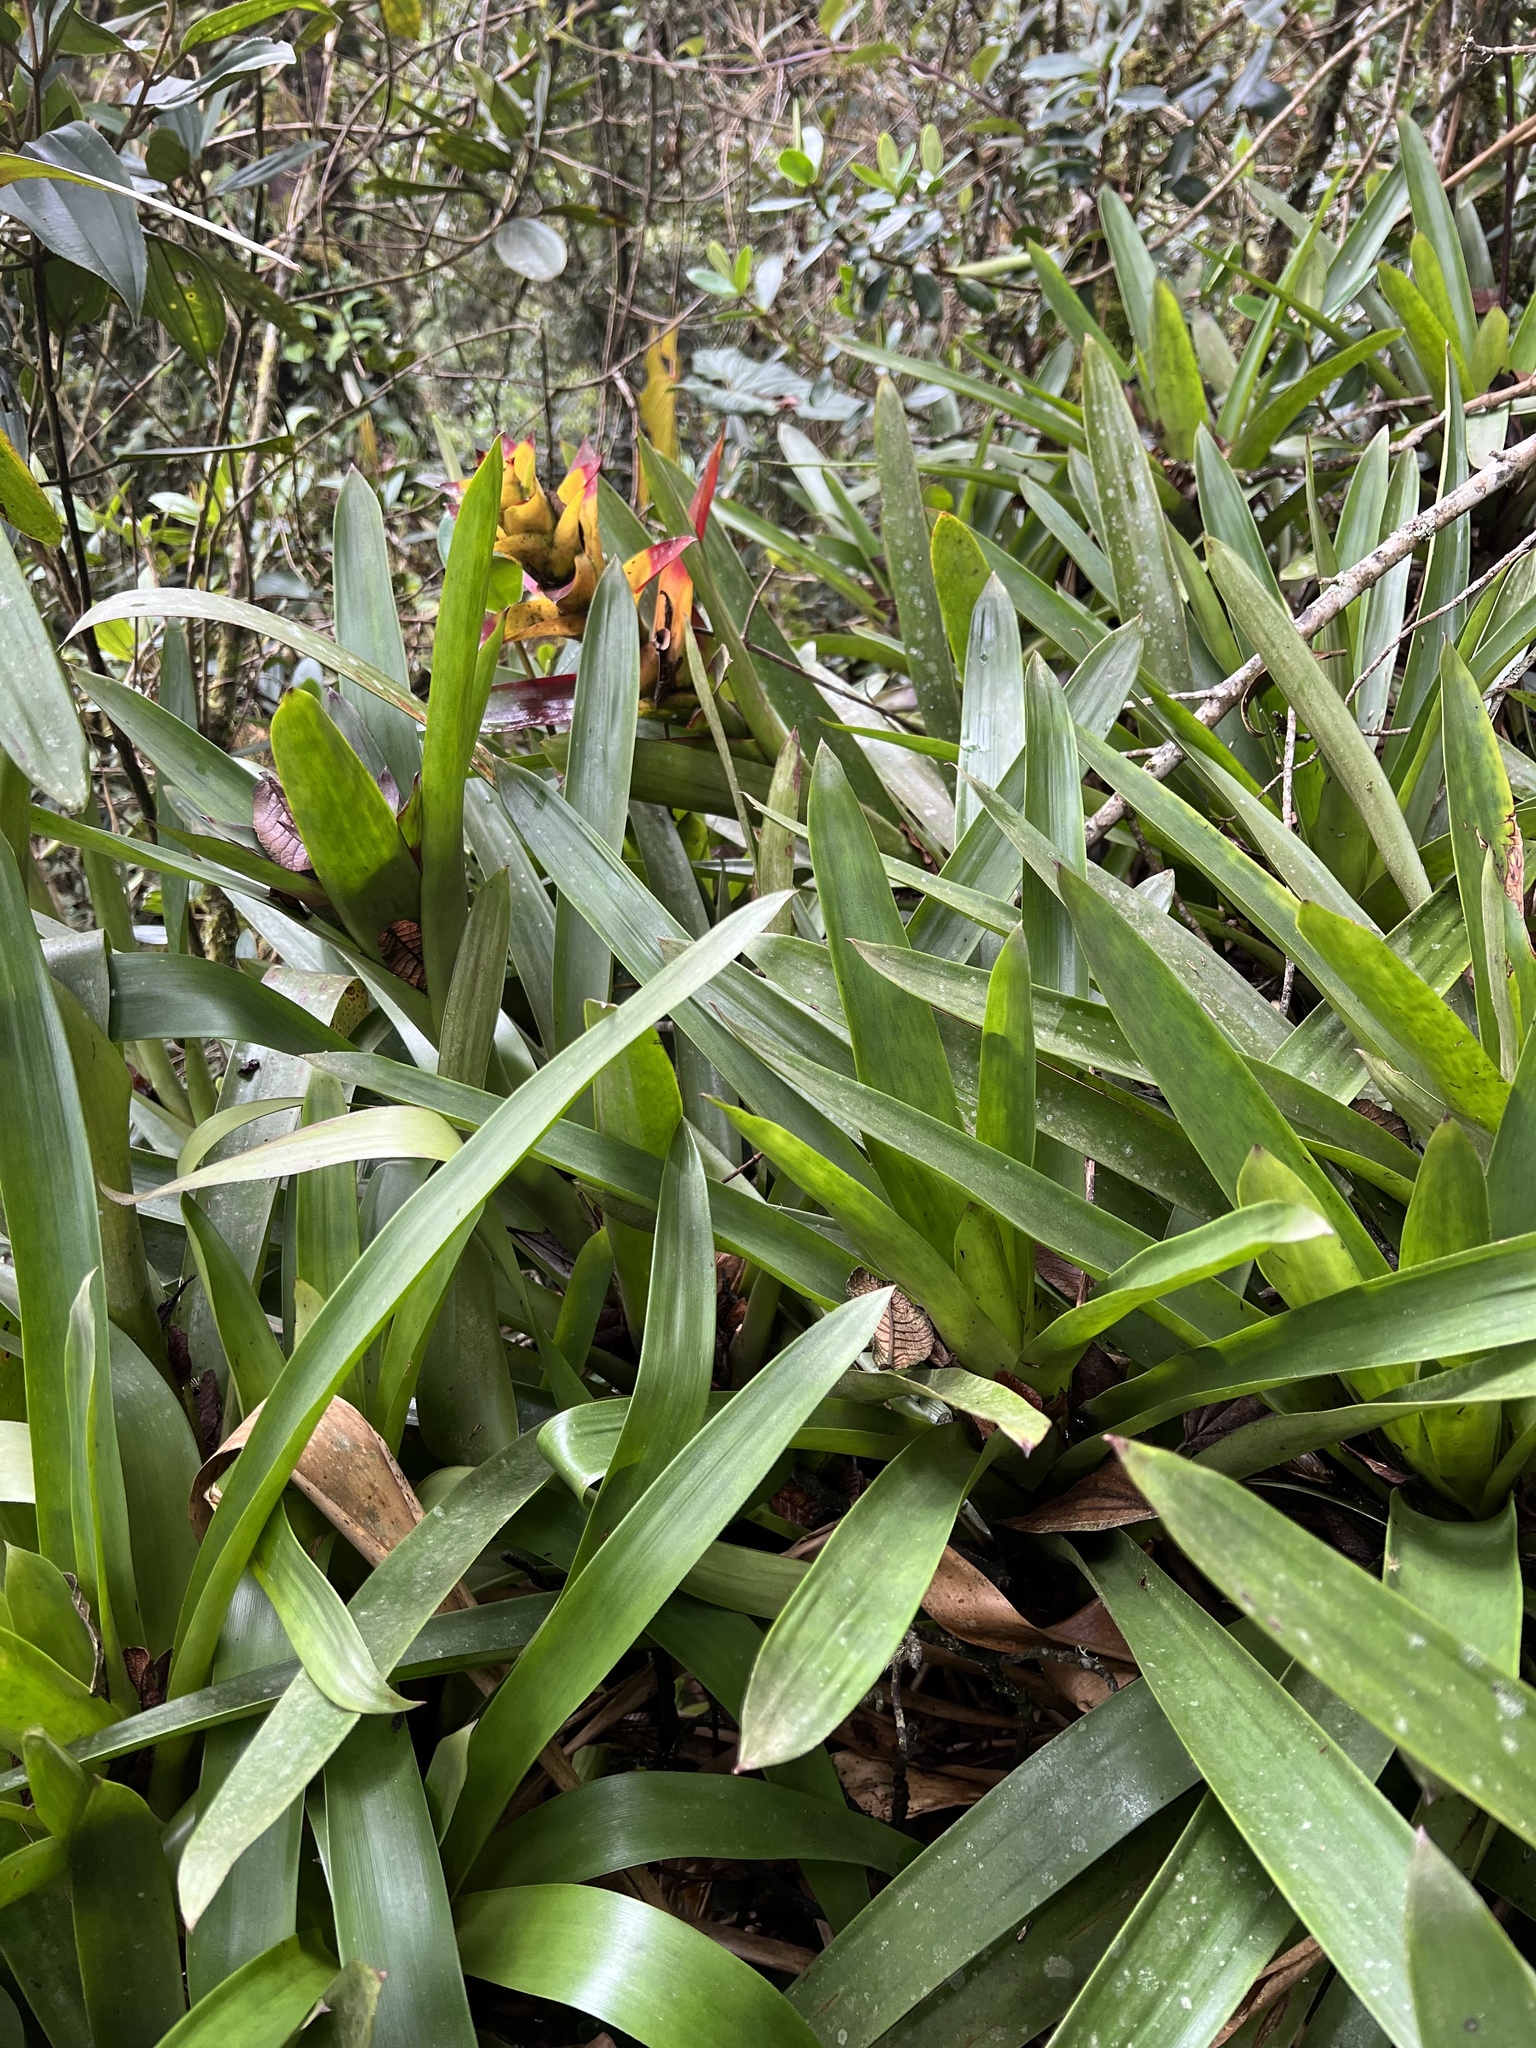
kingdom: Plantae
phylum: Tracheophyta
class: Liliopsida
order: Poales
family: Bromeliaceae
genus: Guzmania
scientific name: Guzmania squarrosa
